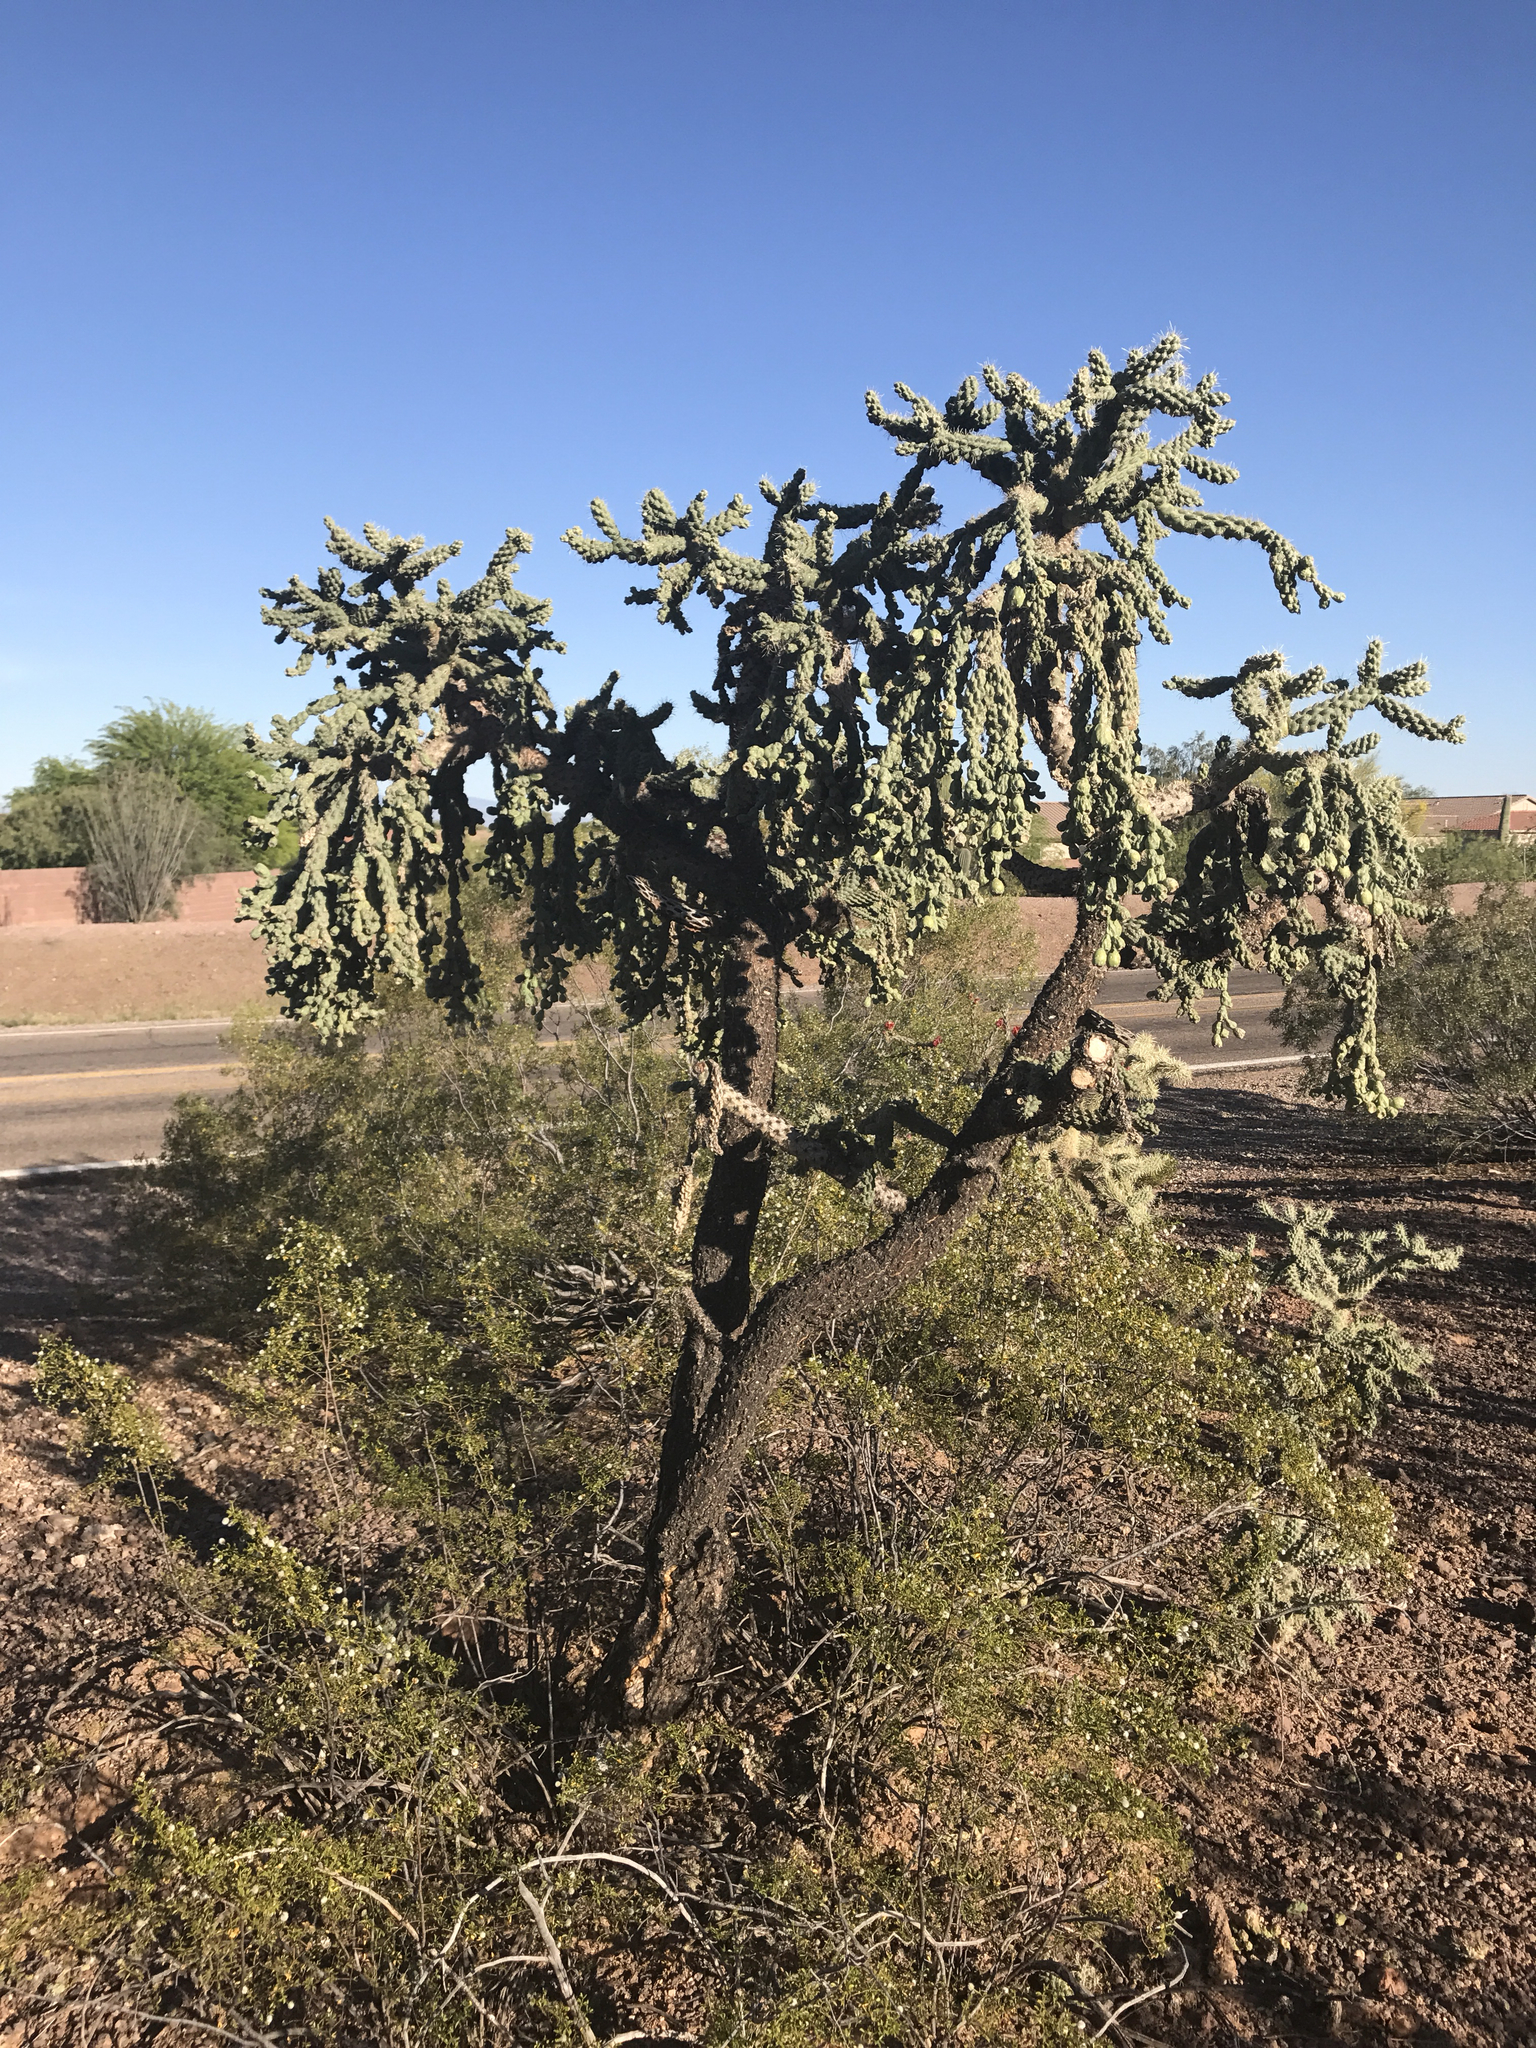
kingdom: Plantae
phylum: Tracheophyta
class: Magnoliopsida
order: Caryophyllales
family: Cactaceae
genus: Cylindropuntia
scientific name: Cylindropuntia fulgida
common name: Jumping cholla
